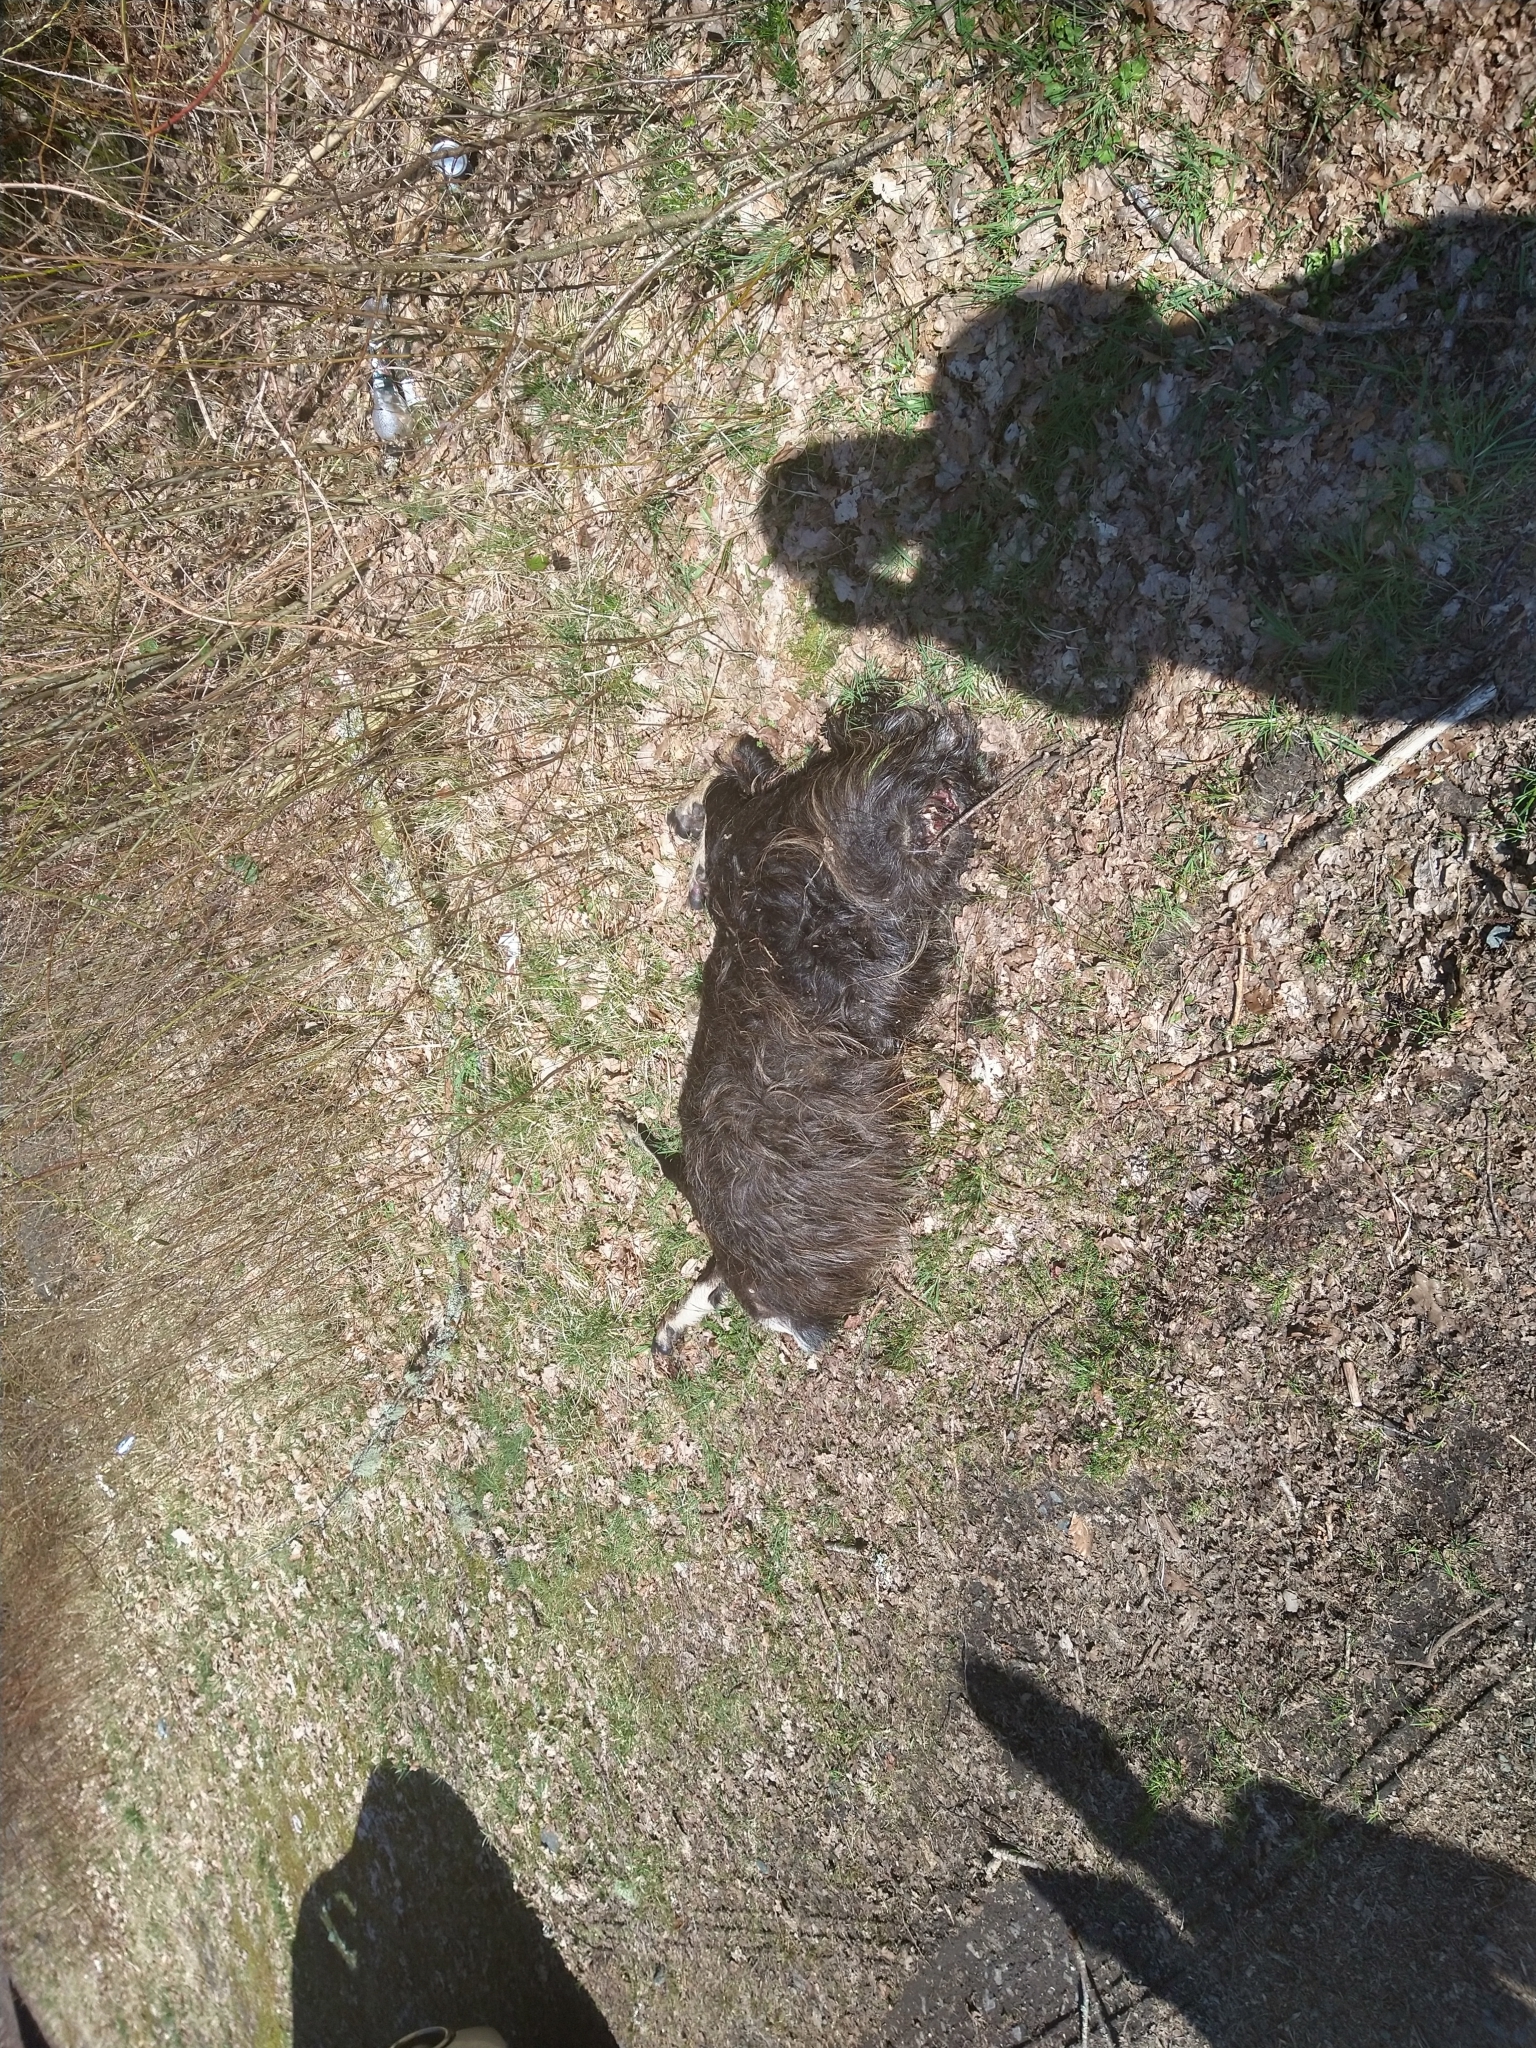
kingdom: Animalia
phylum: Chordata
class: Mammalia
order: Artiodactyla
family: Bovidae
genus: Capra
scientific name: Capra hircus
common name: Domestic goat
